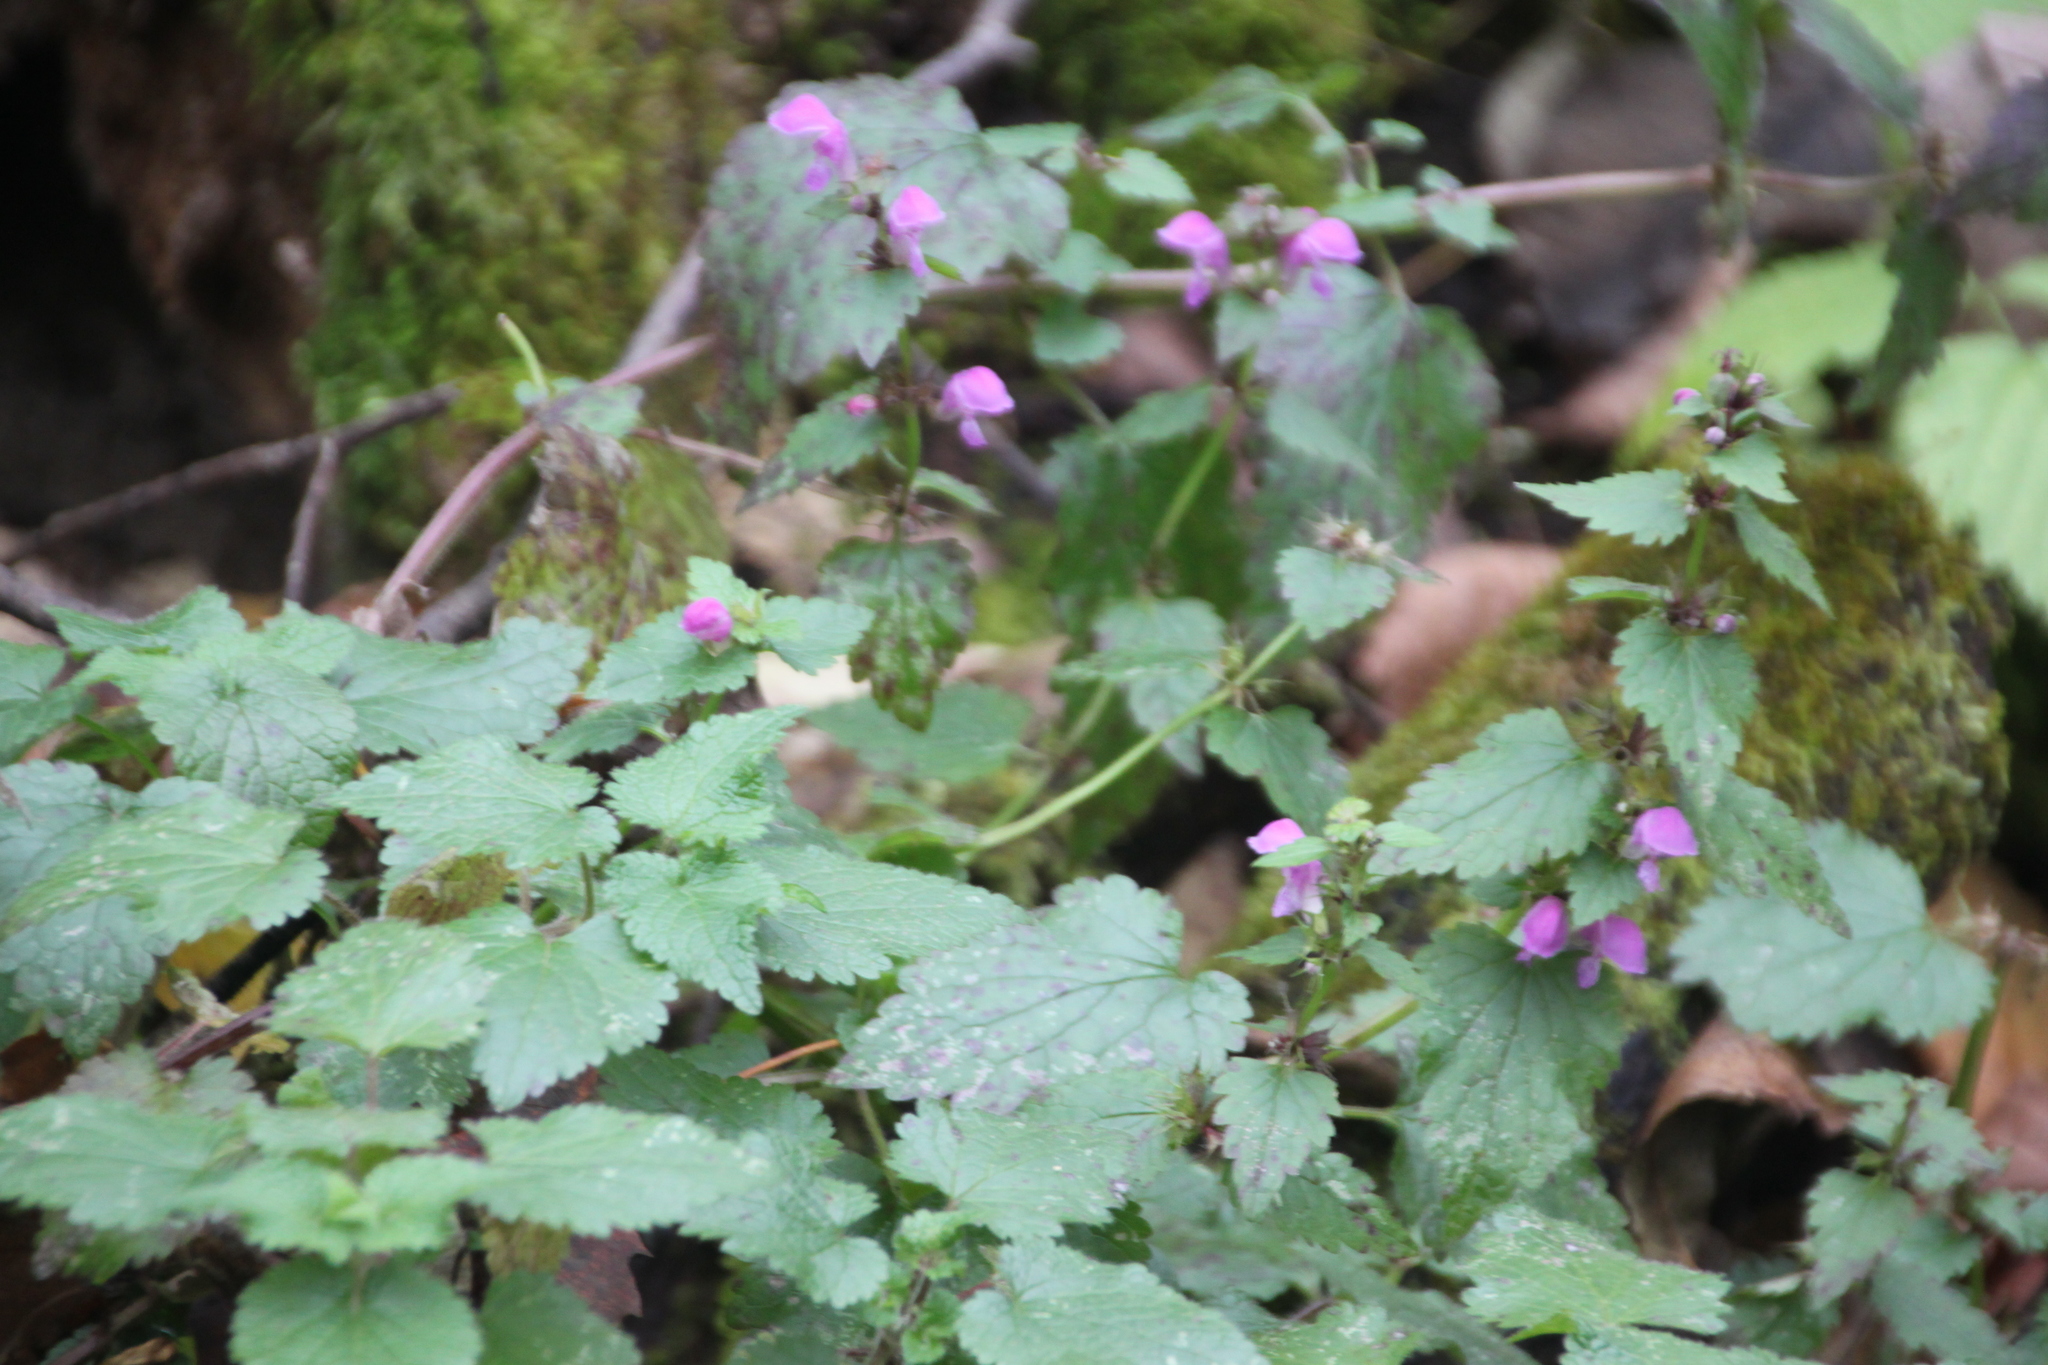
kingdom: Plantae
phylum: Tracheophyta
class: Magnoliopsida
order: Lamiales
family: Lamiaceae
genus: Lamium
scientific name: Lamium maculatum
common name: Spotted dead-nettle
